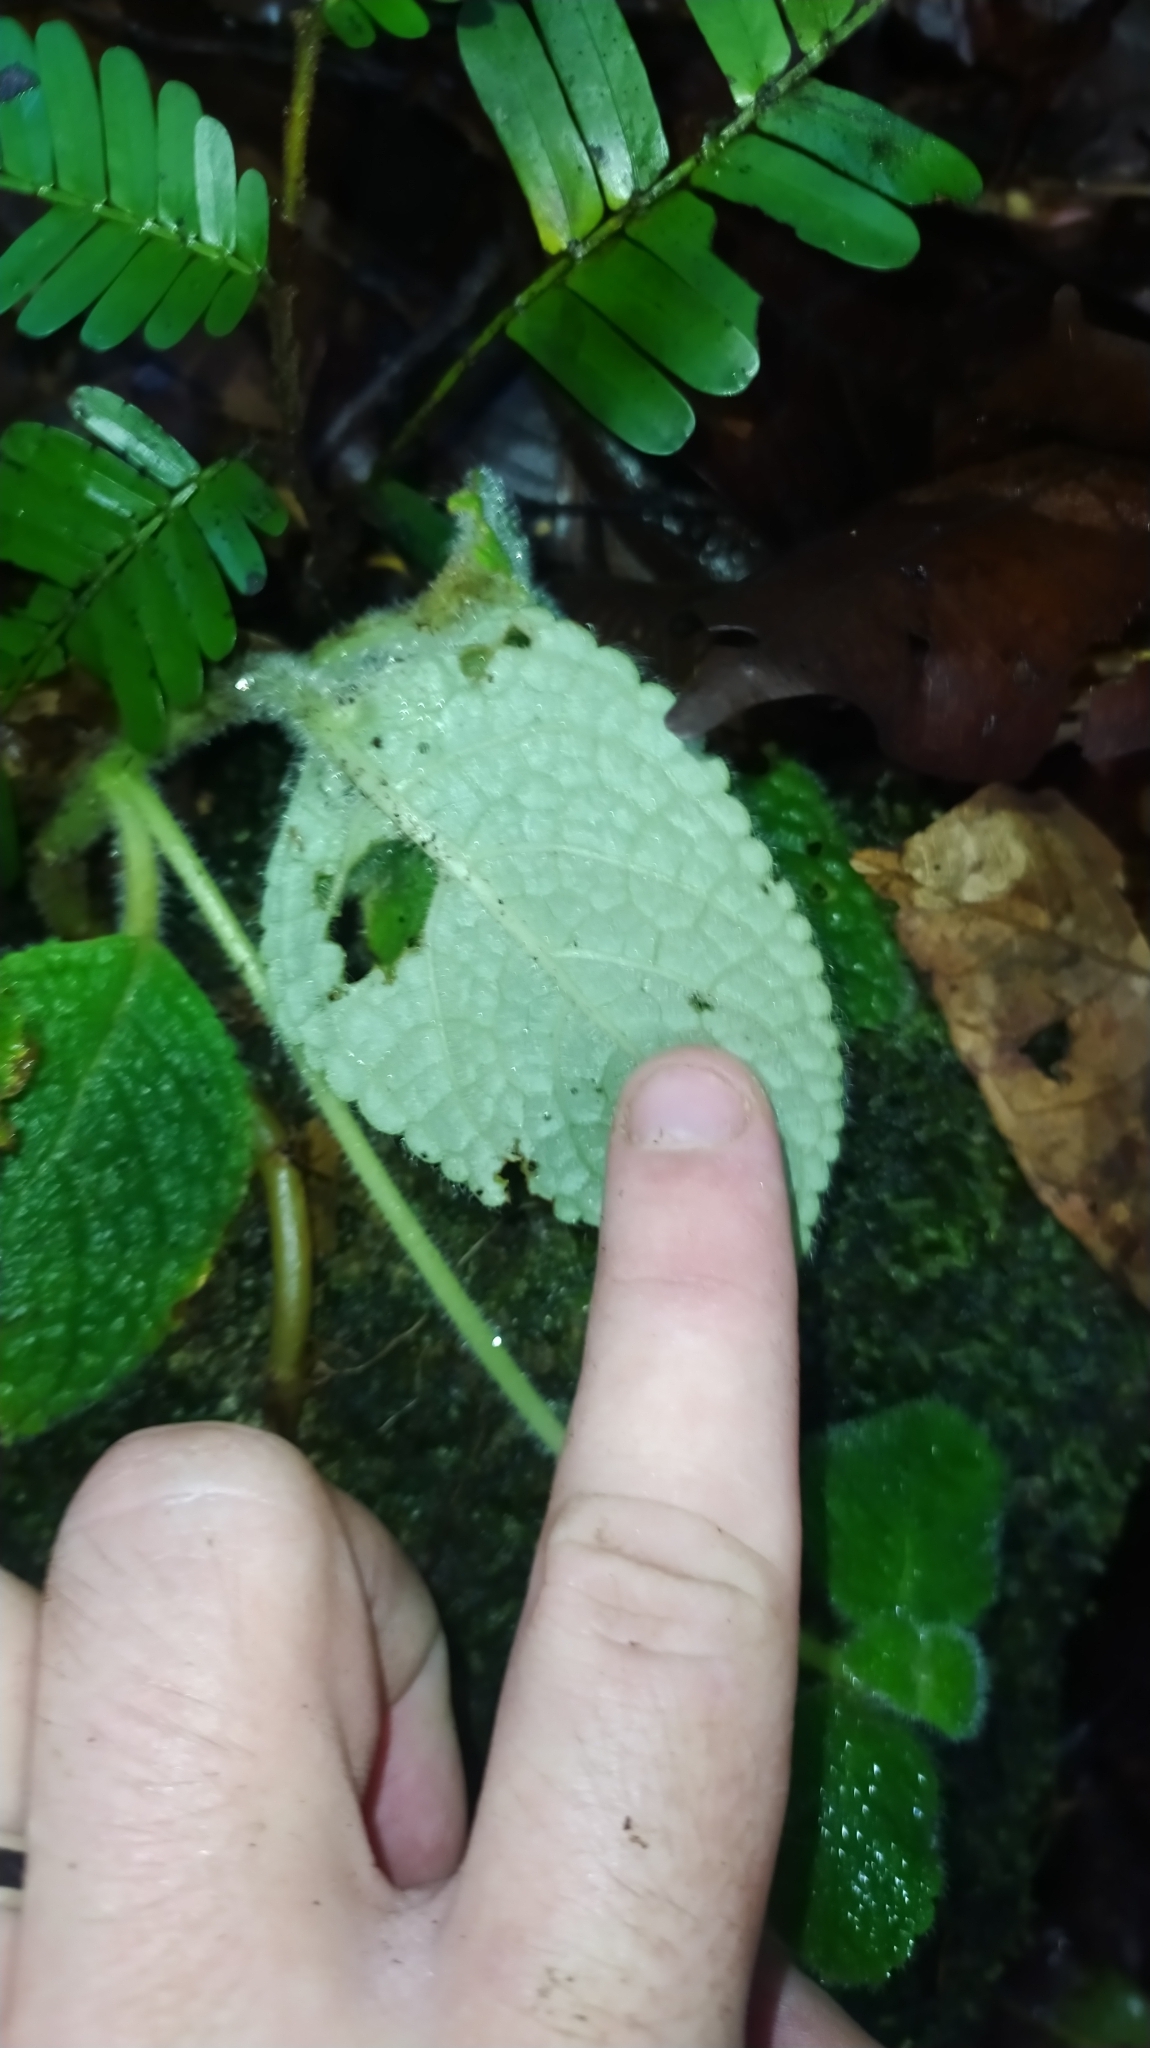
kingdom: Plantae
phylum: Tracheophyta
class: Magnoliopsida
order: Lamiales
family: Gesneriaceae
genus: Episcia
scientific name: Episcia sphalera
